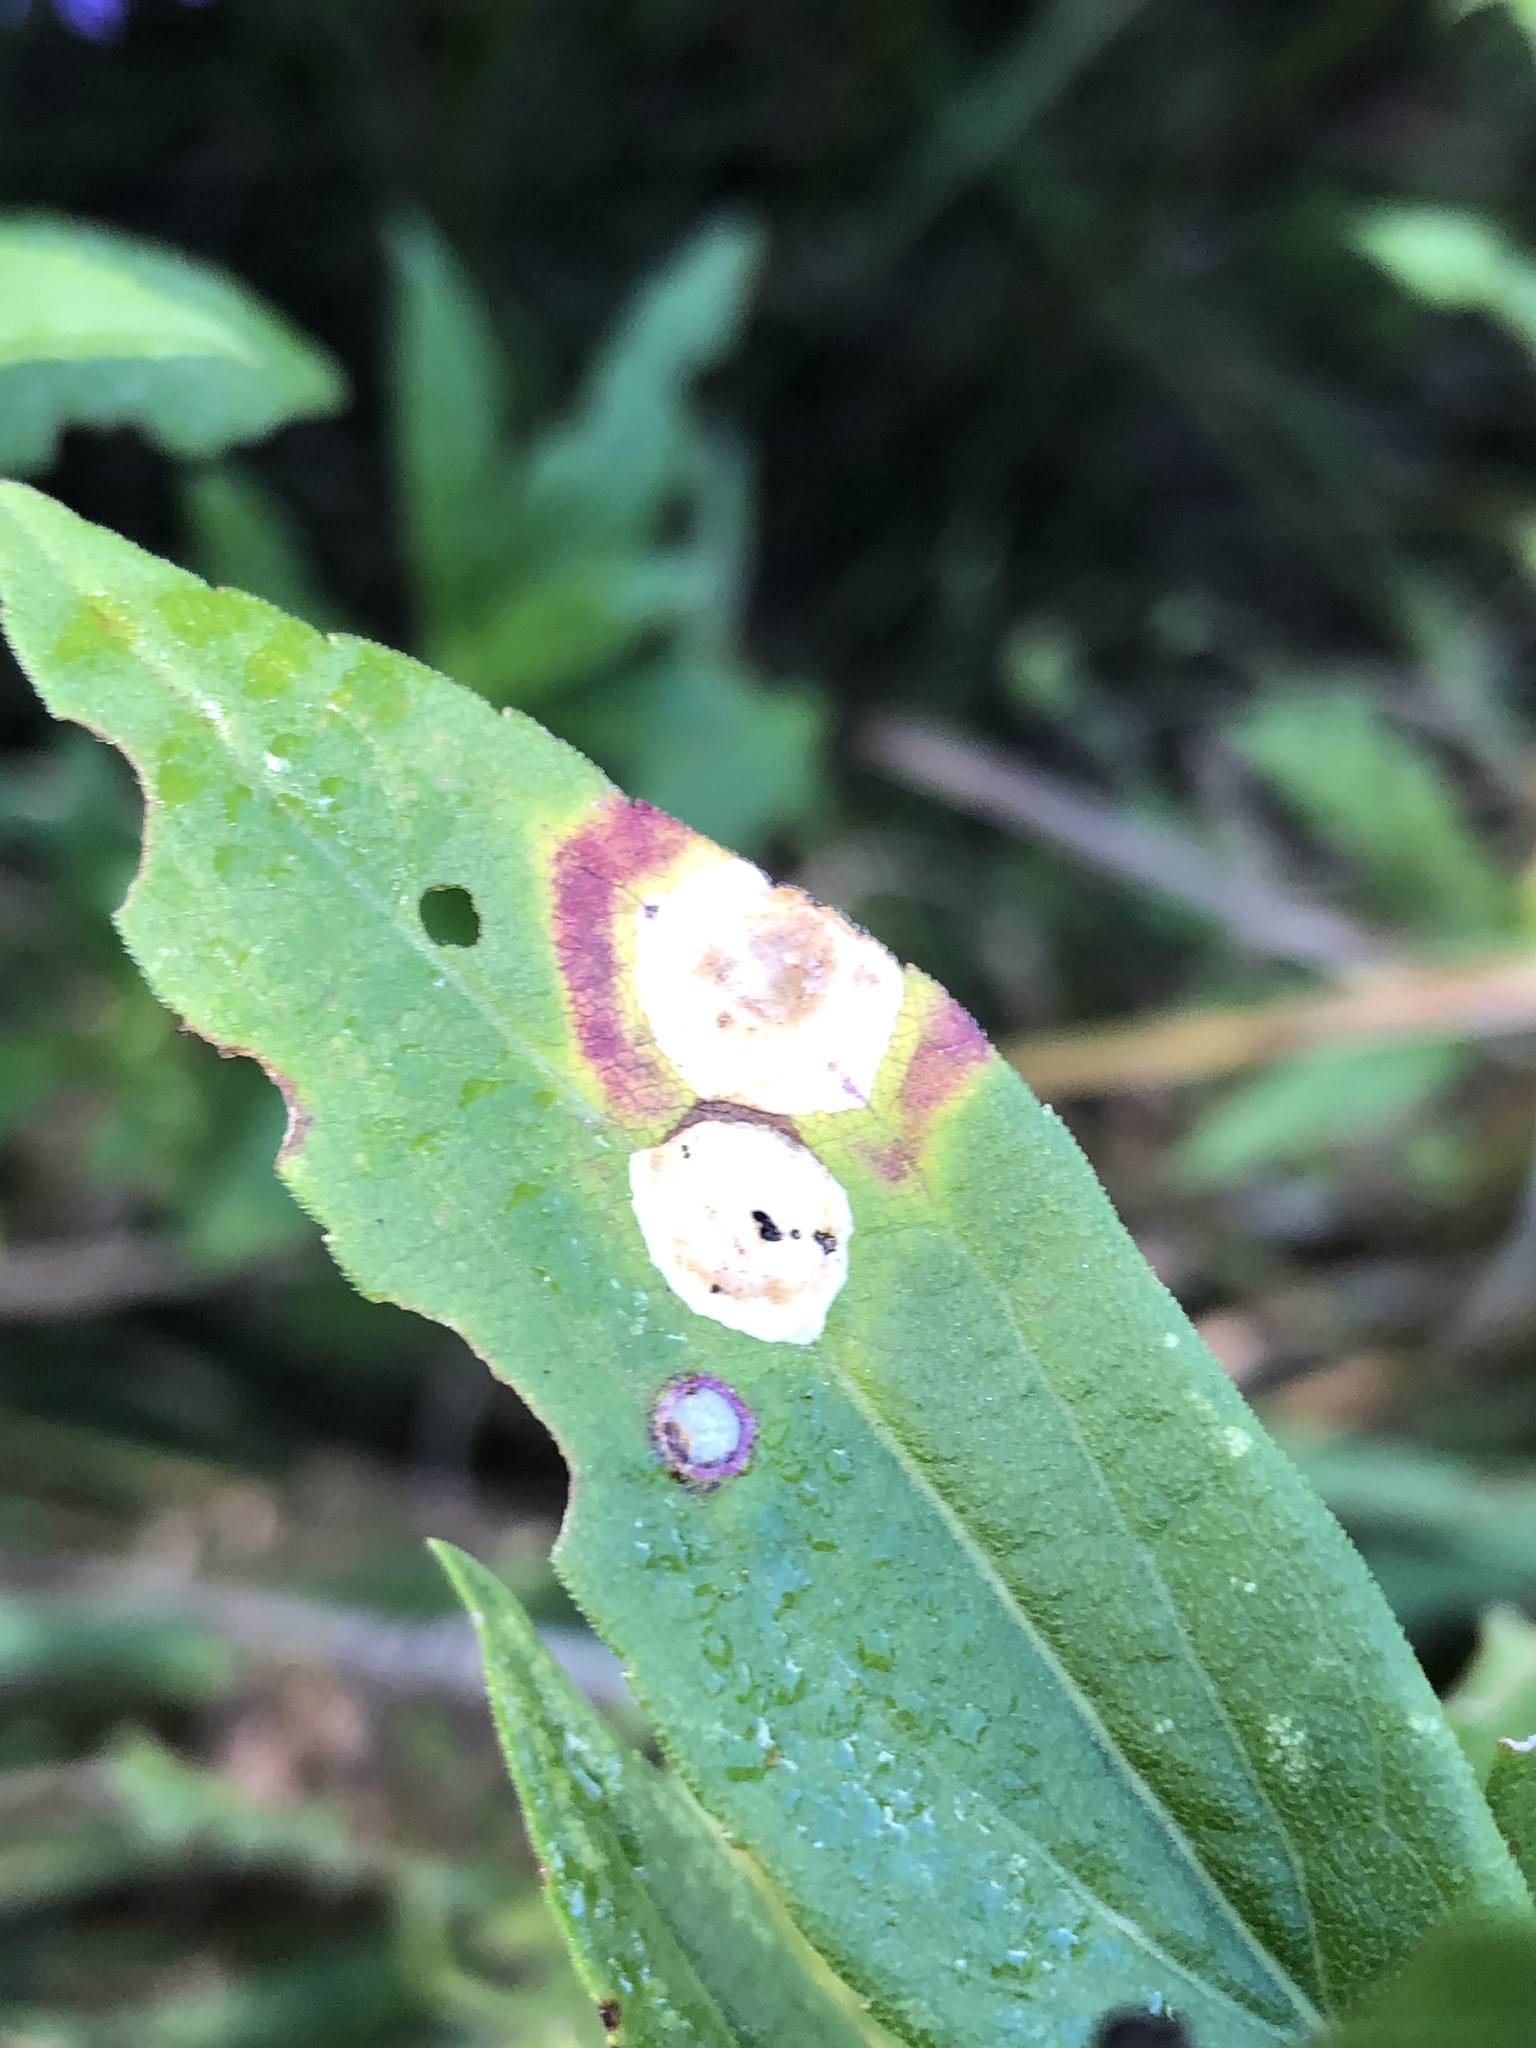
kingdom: Animalia
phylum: Arthropoda
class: Insecta
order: Diptera
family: Cecidomyiidae
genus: Asteromyia
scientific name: Asteromyia carbonifera
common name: Carbonifera goldenrod gall midge
